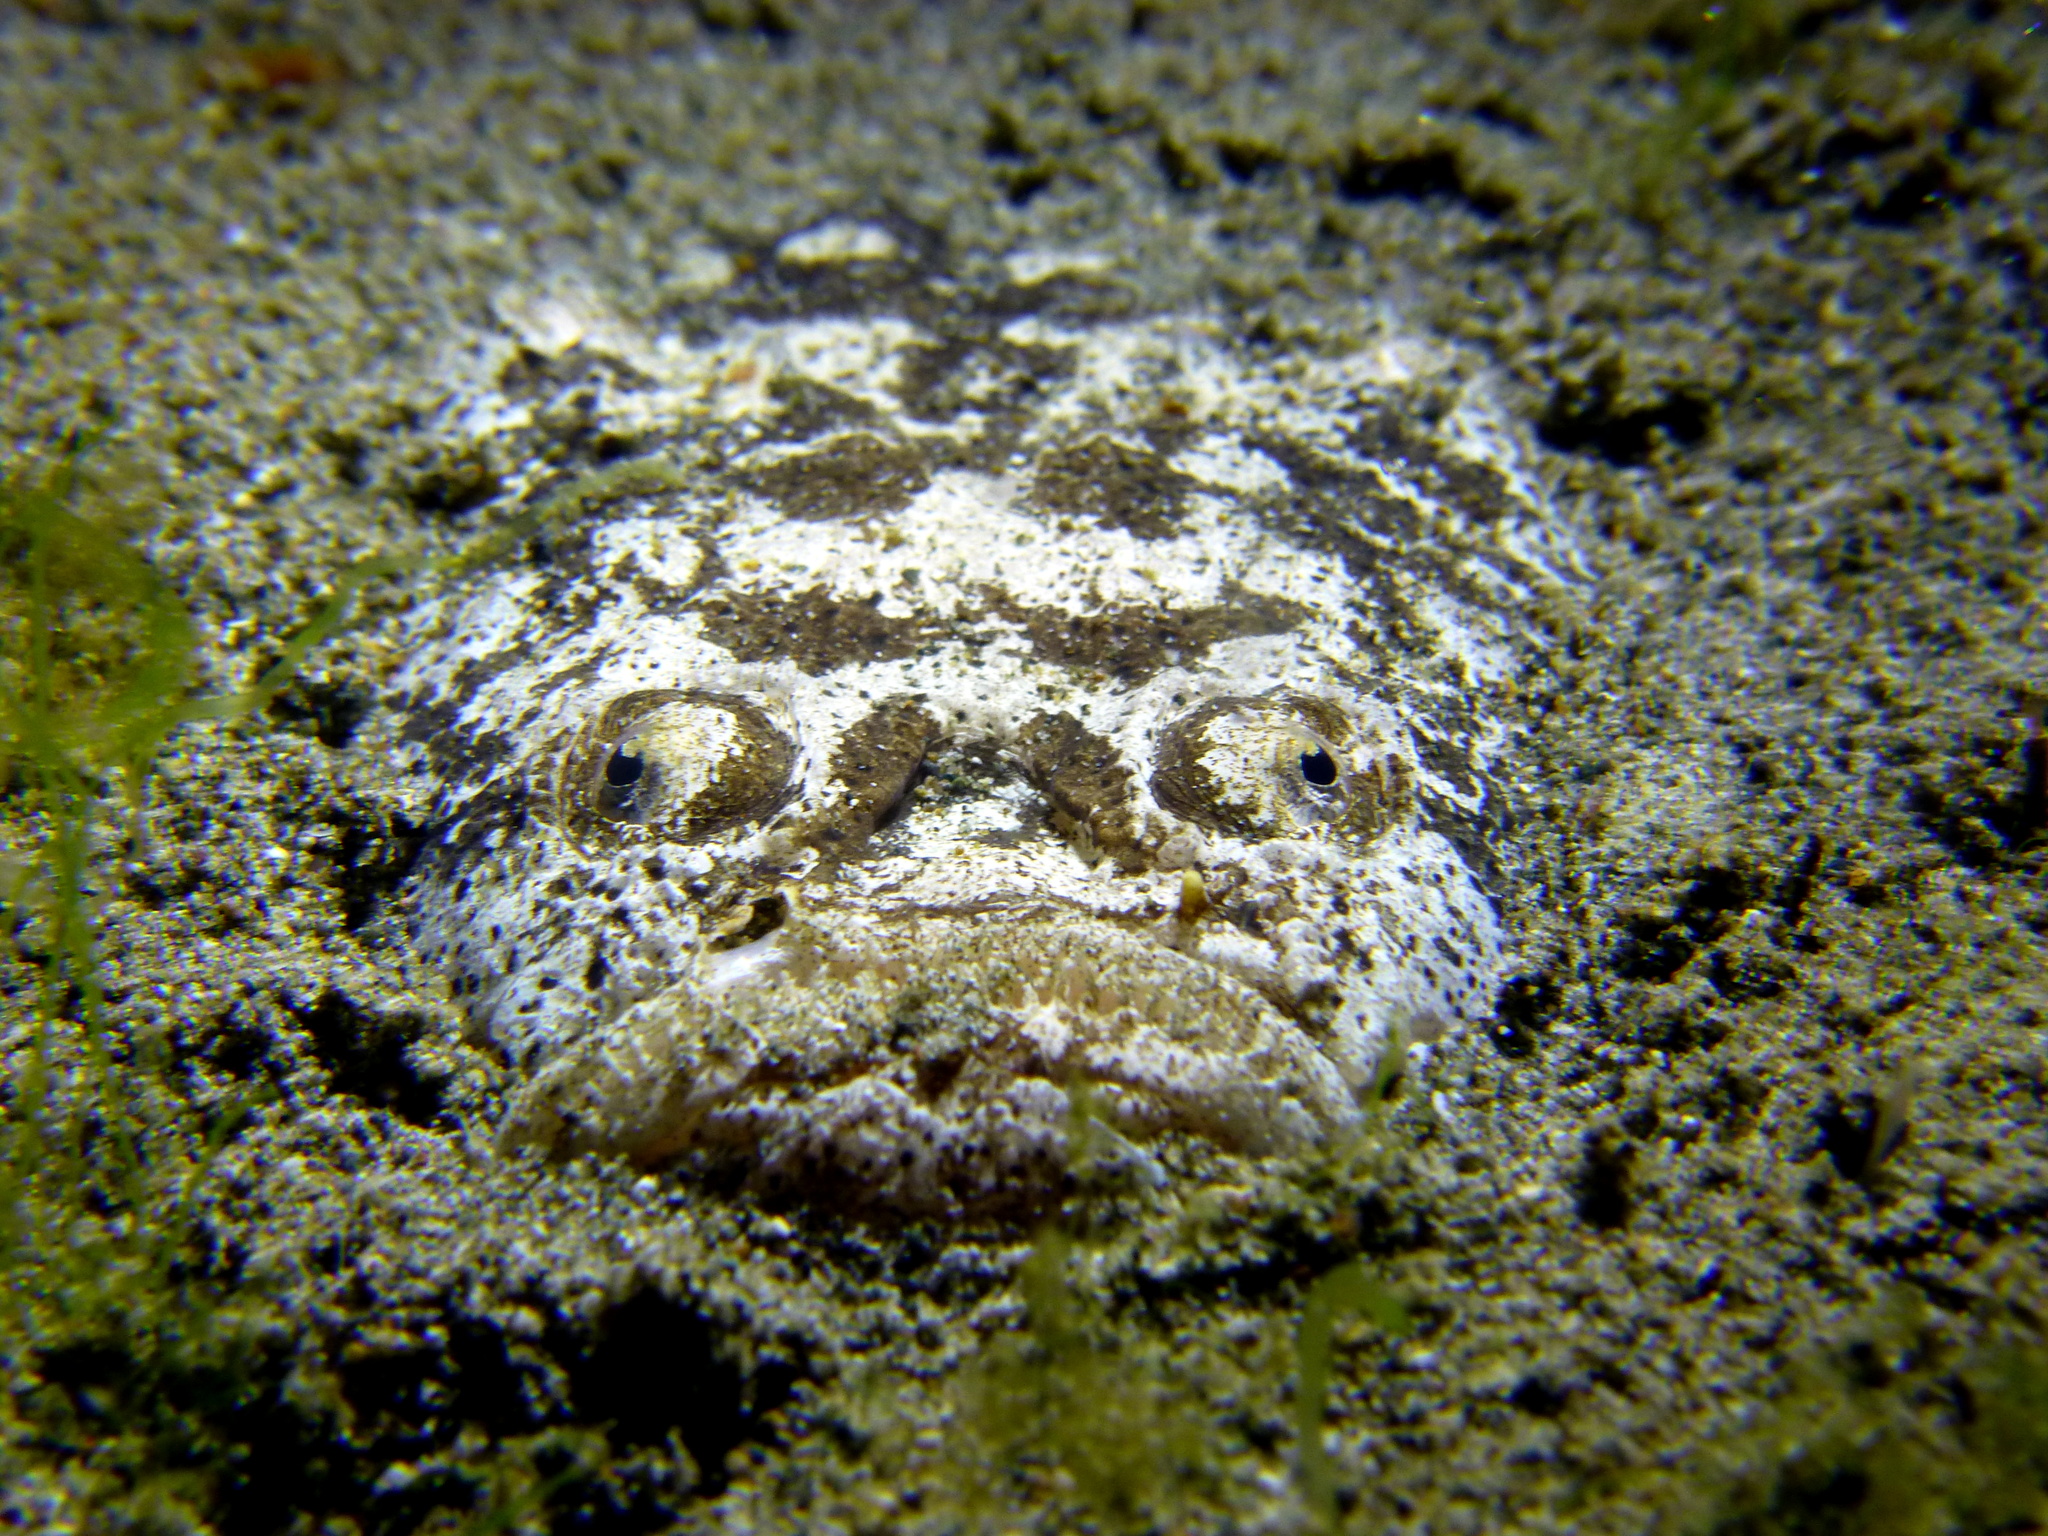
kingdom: Animalia
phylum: Chordata
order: Perciformes
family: Uranoscopidae
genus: Uranoscopus
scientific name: Uranoscopus bicinctus
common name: Marbled stargazer
